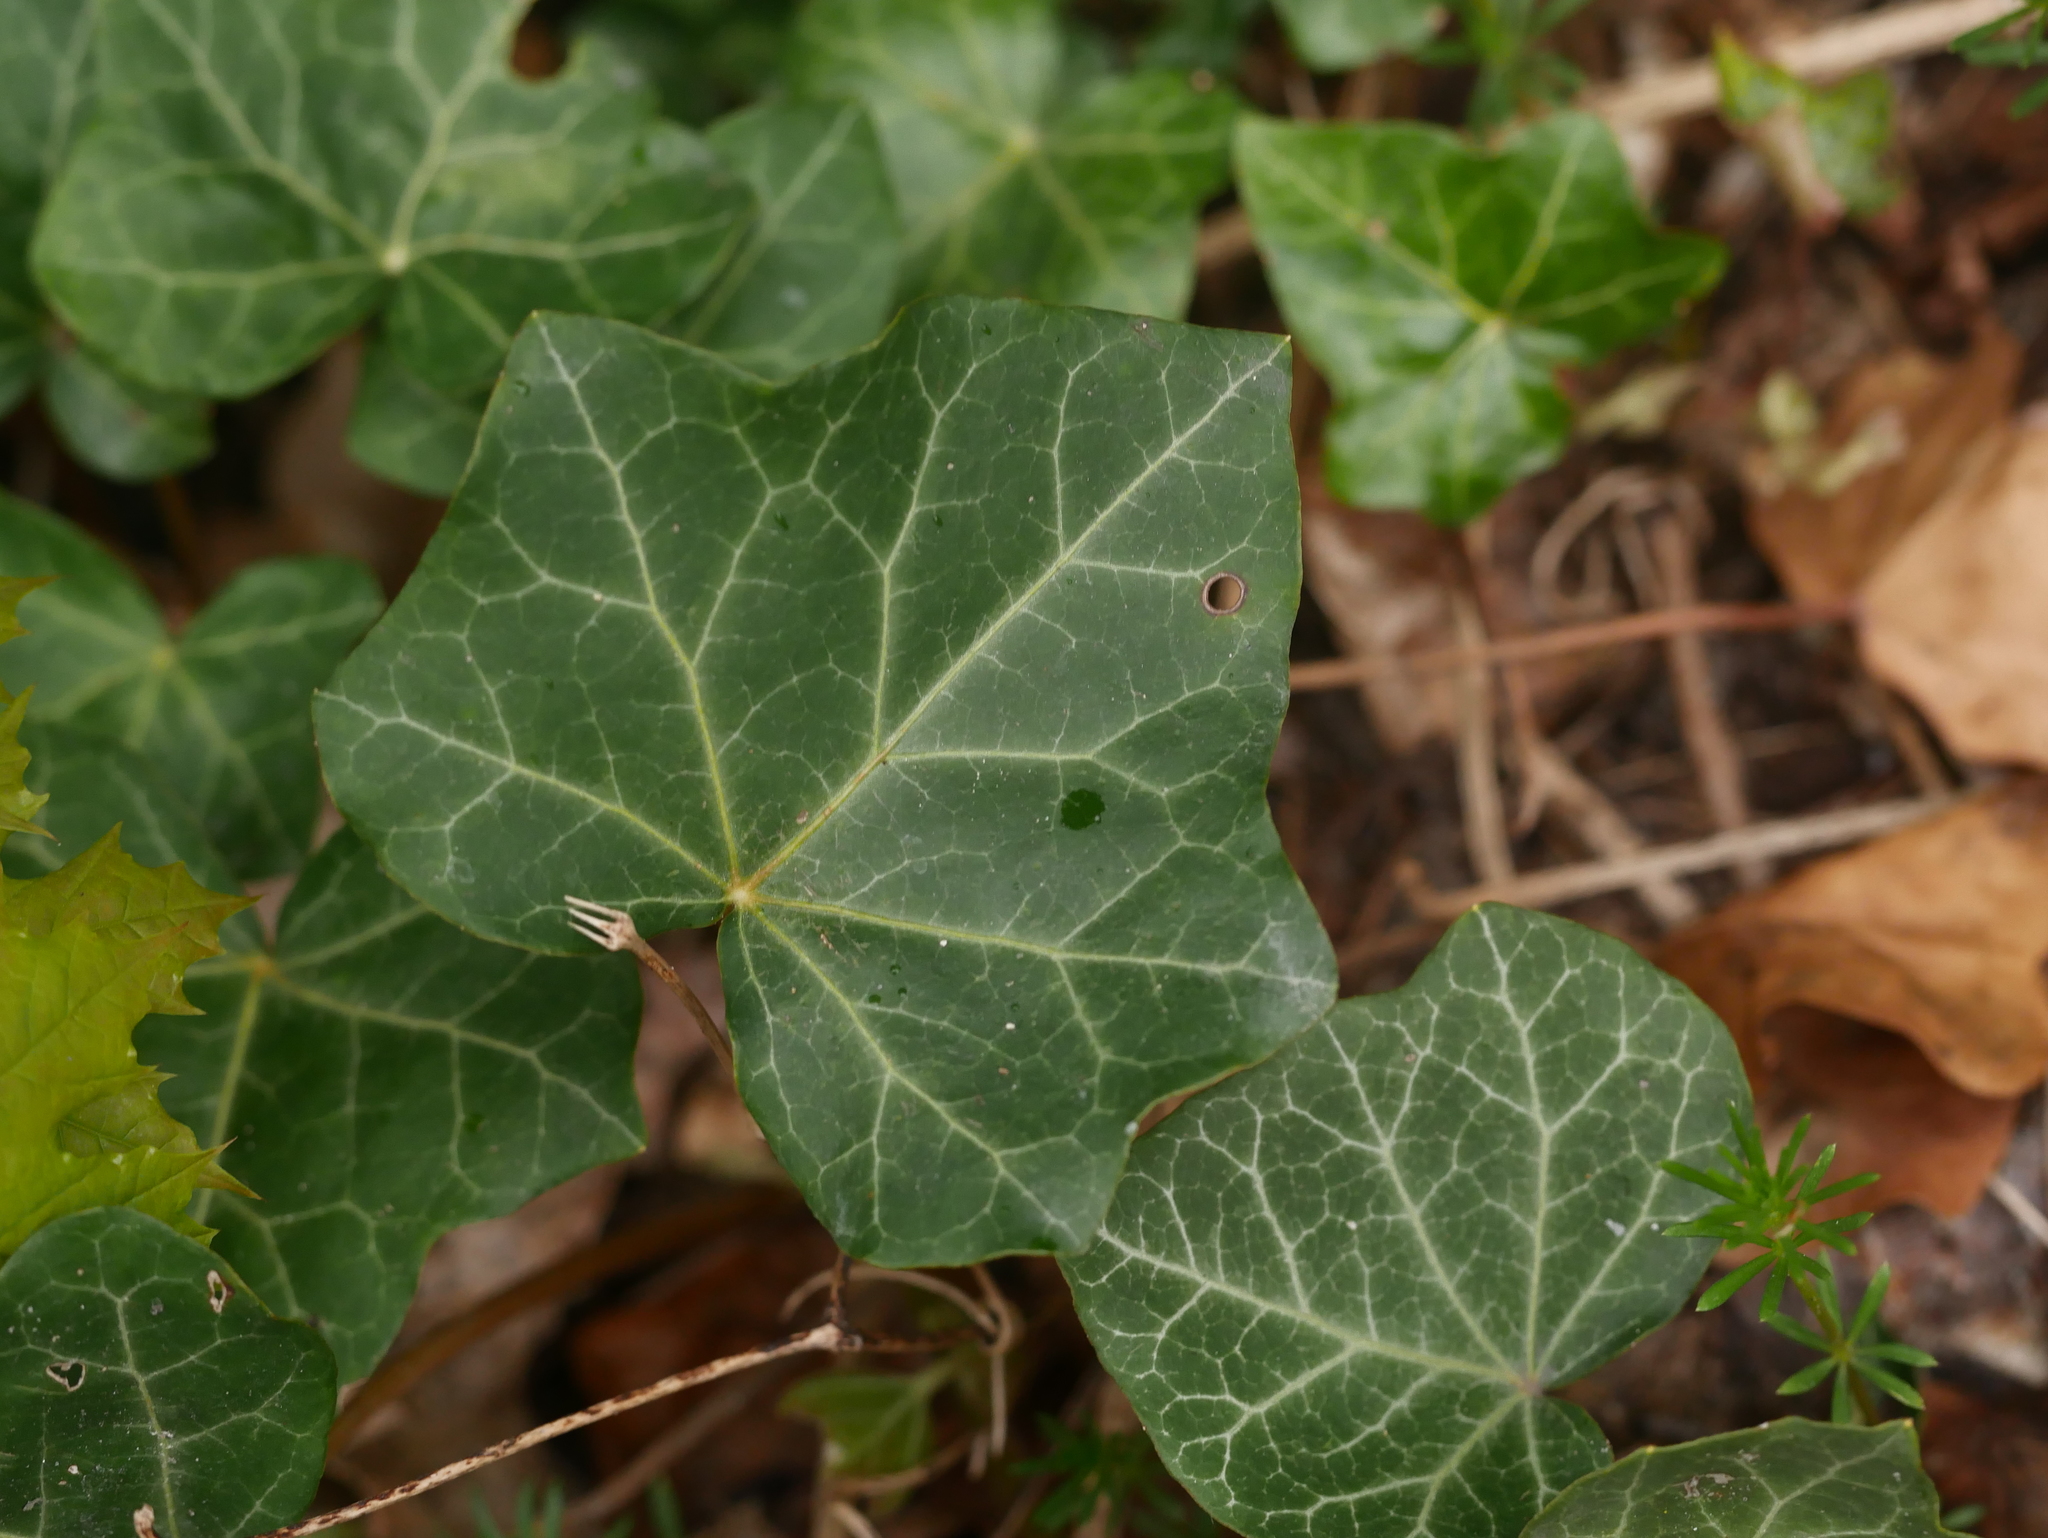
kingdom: Plantae
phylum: Tracheophyta
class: Magnoliopsida
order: Apiales
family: Araliaceae
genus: Hedera
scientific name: Hedera helix
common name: Ivy
